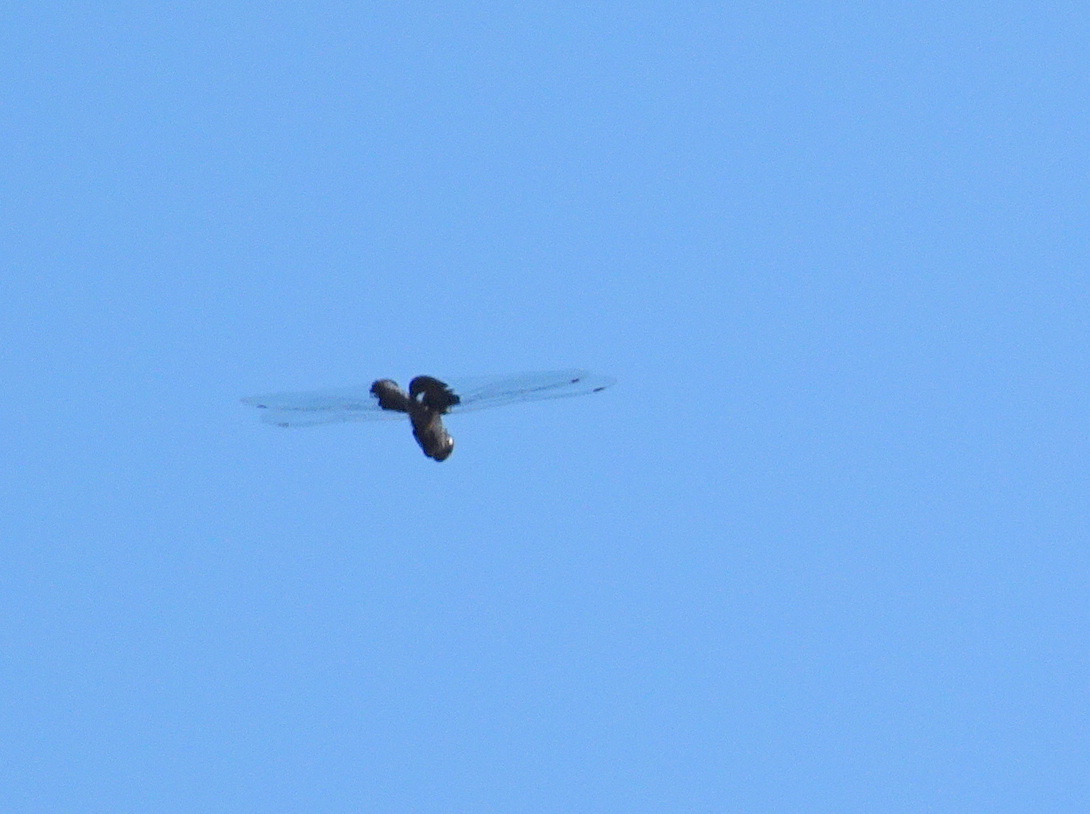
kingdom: Animalia
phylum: Arthropoda
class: Insecta
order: Odonata
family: Libellulidae
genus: Tramea
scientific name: Tramea lacerata
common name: Black saddlebags
